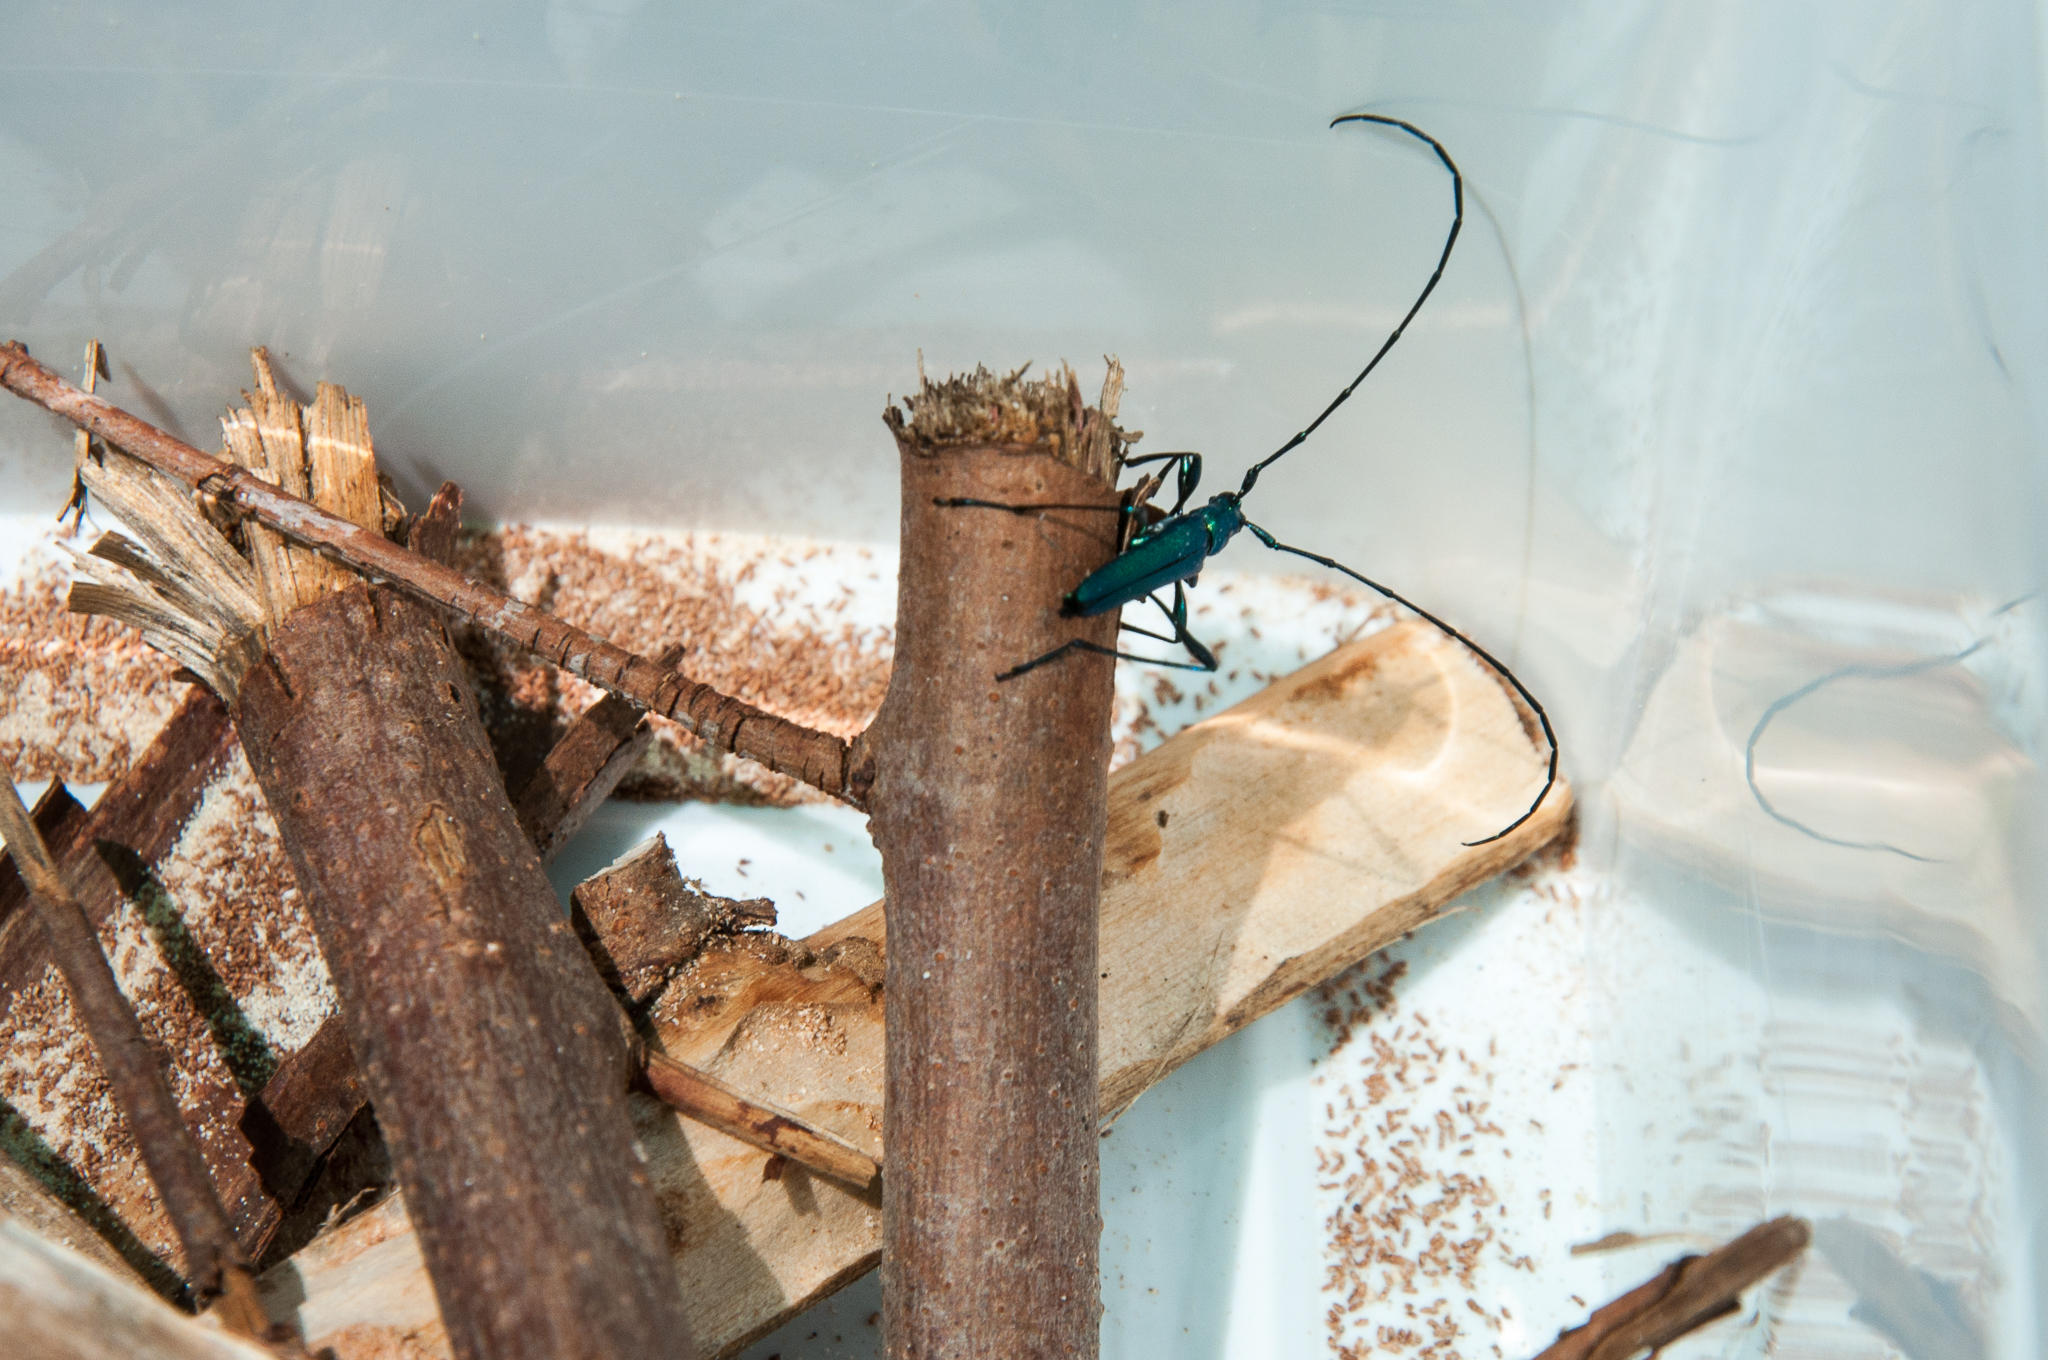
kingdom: Animalia
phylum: Arthropoda
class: Insecta
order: Coleoptera
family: Cerambycidae
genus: Promeces
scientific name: Promeces longipes
